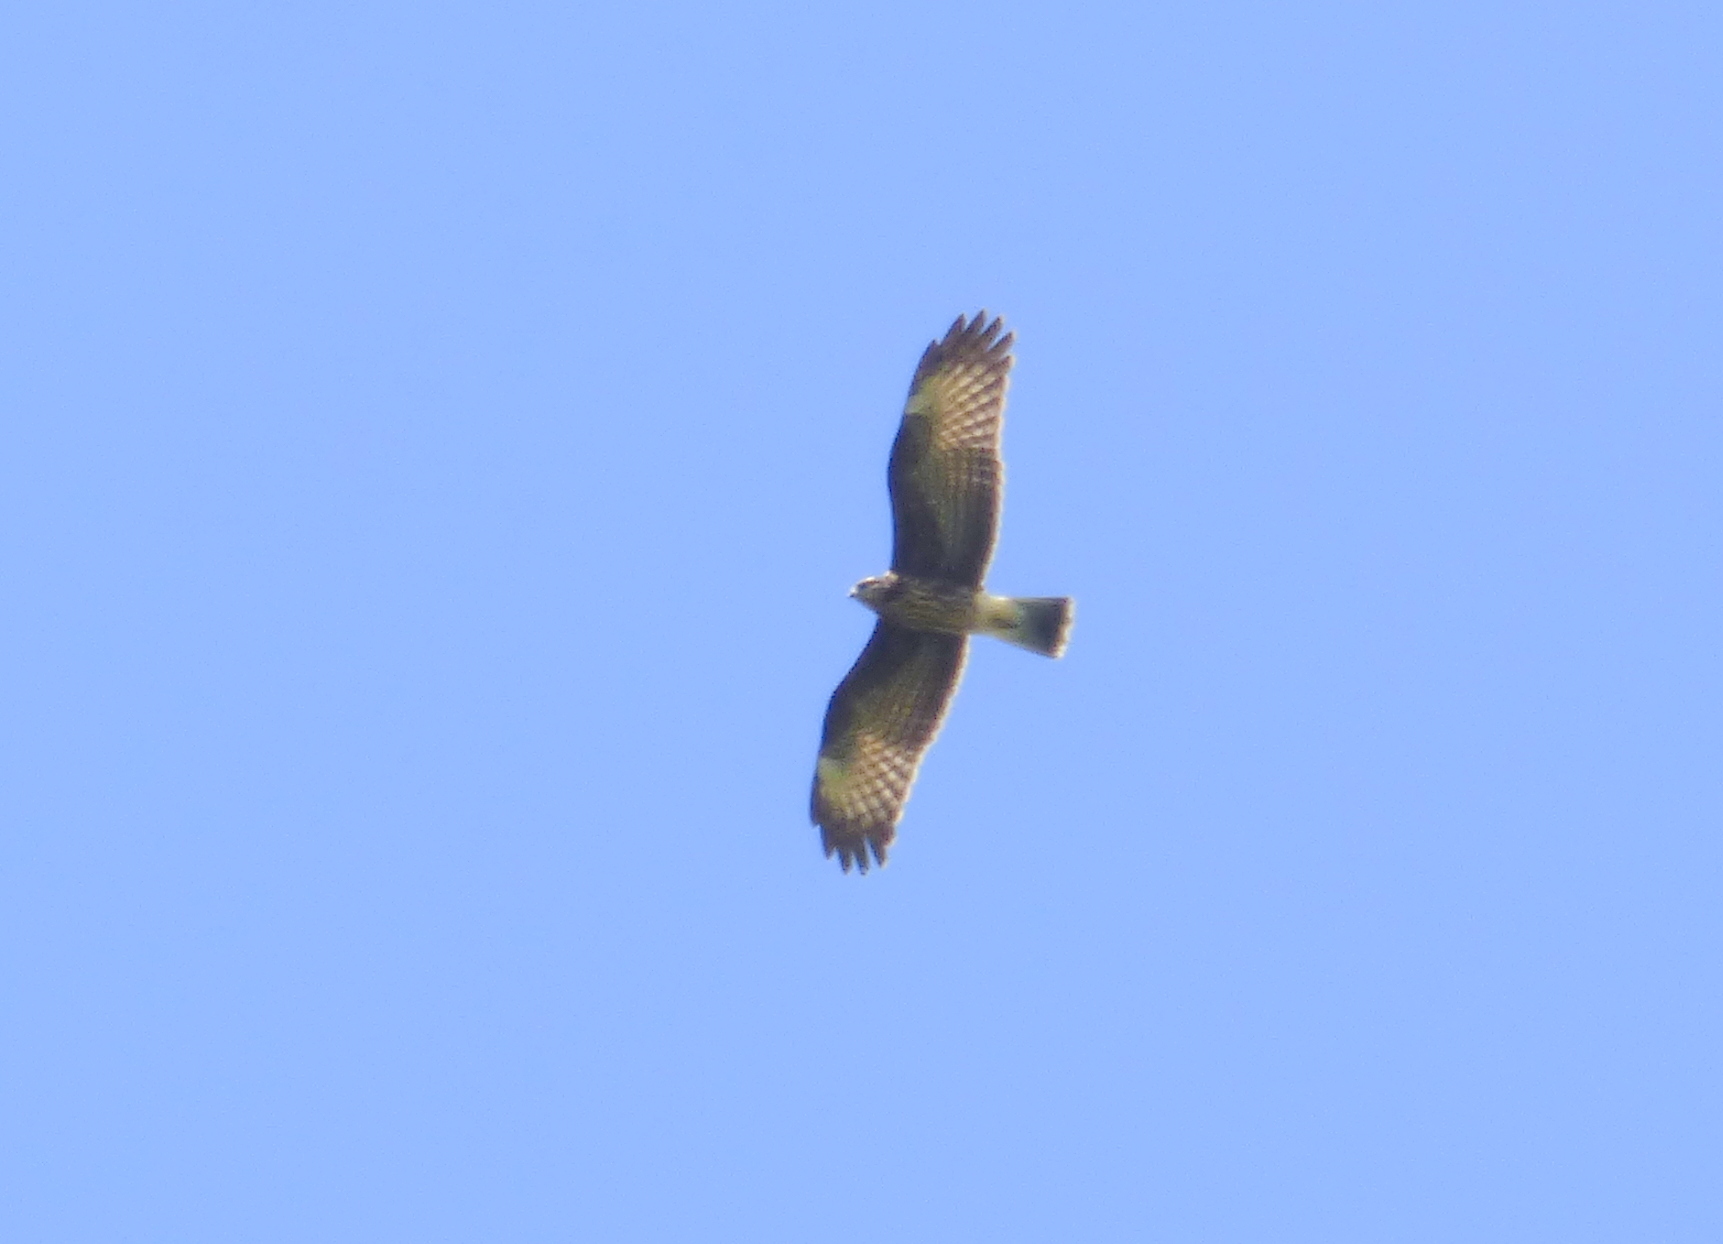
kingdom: Animalia
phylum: Chordata
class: Aves
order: Accipitriformes
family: Accipitridae
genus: Rostrhamus
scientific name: Rostrhamus sociabilis
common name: Snail kite
